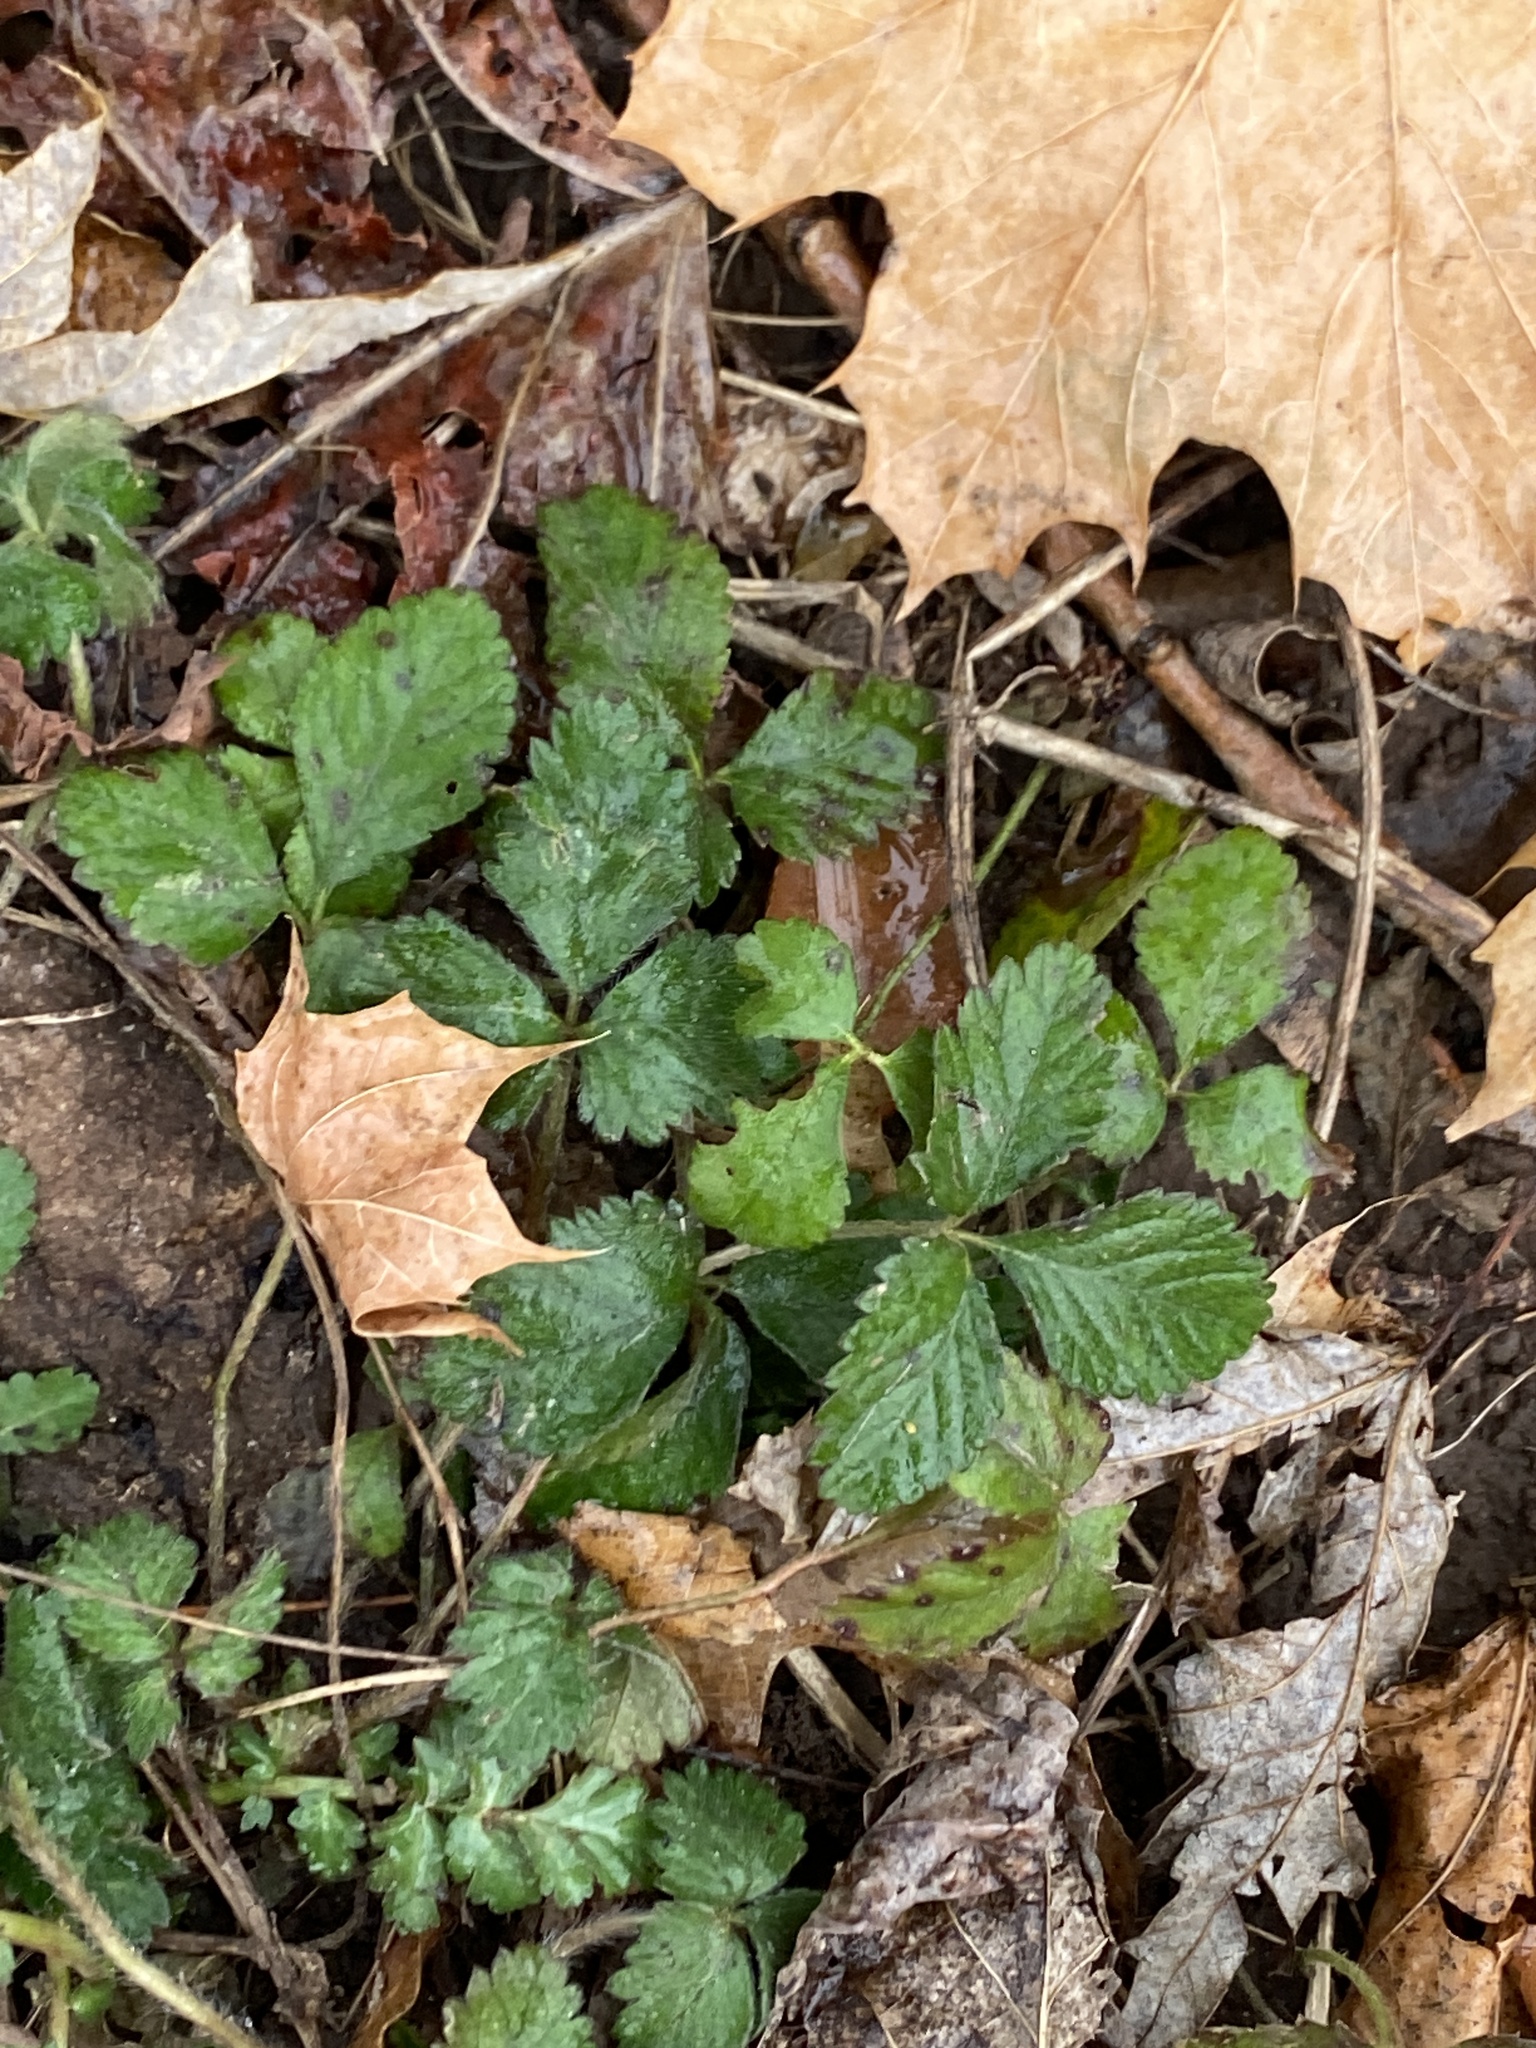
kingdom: Plantae
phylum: Tracheophyta
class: Magnoliopsida
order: Rosales
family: Rosaceae
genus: Potentilla
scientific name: Potentilla indica
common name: Yellow-flowered strawberry
